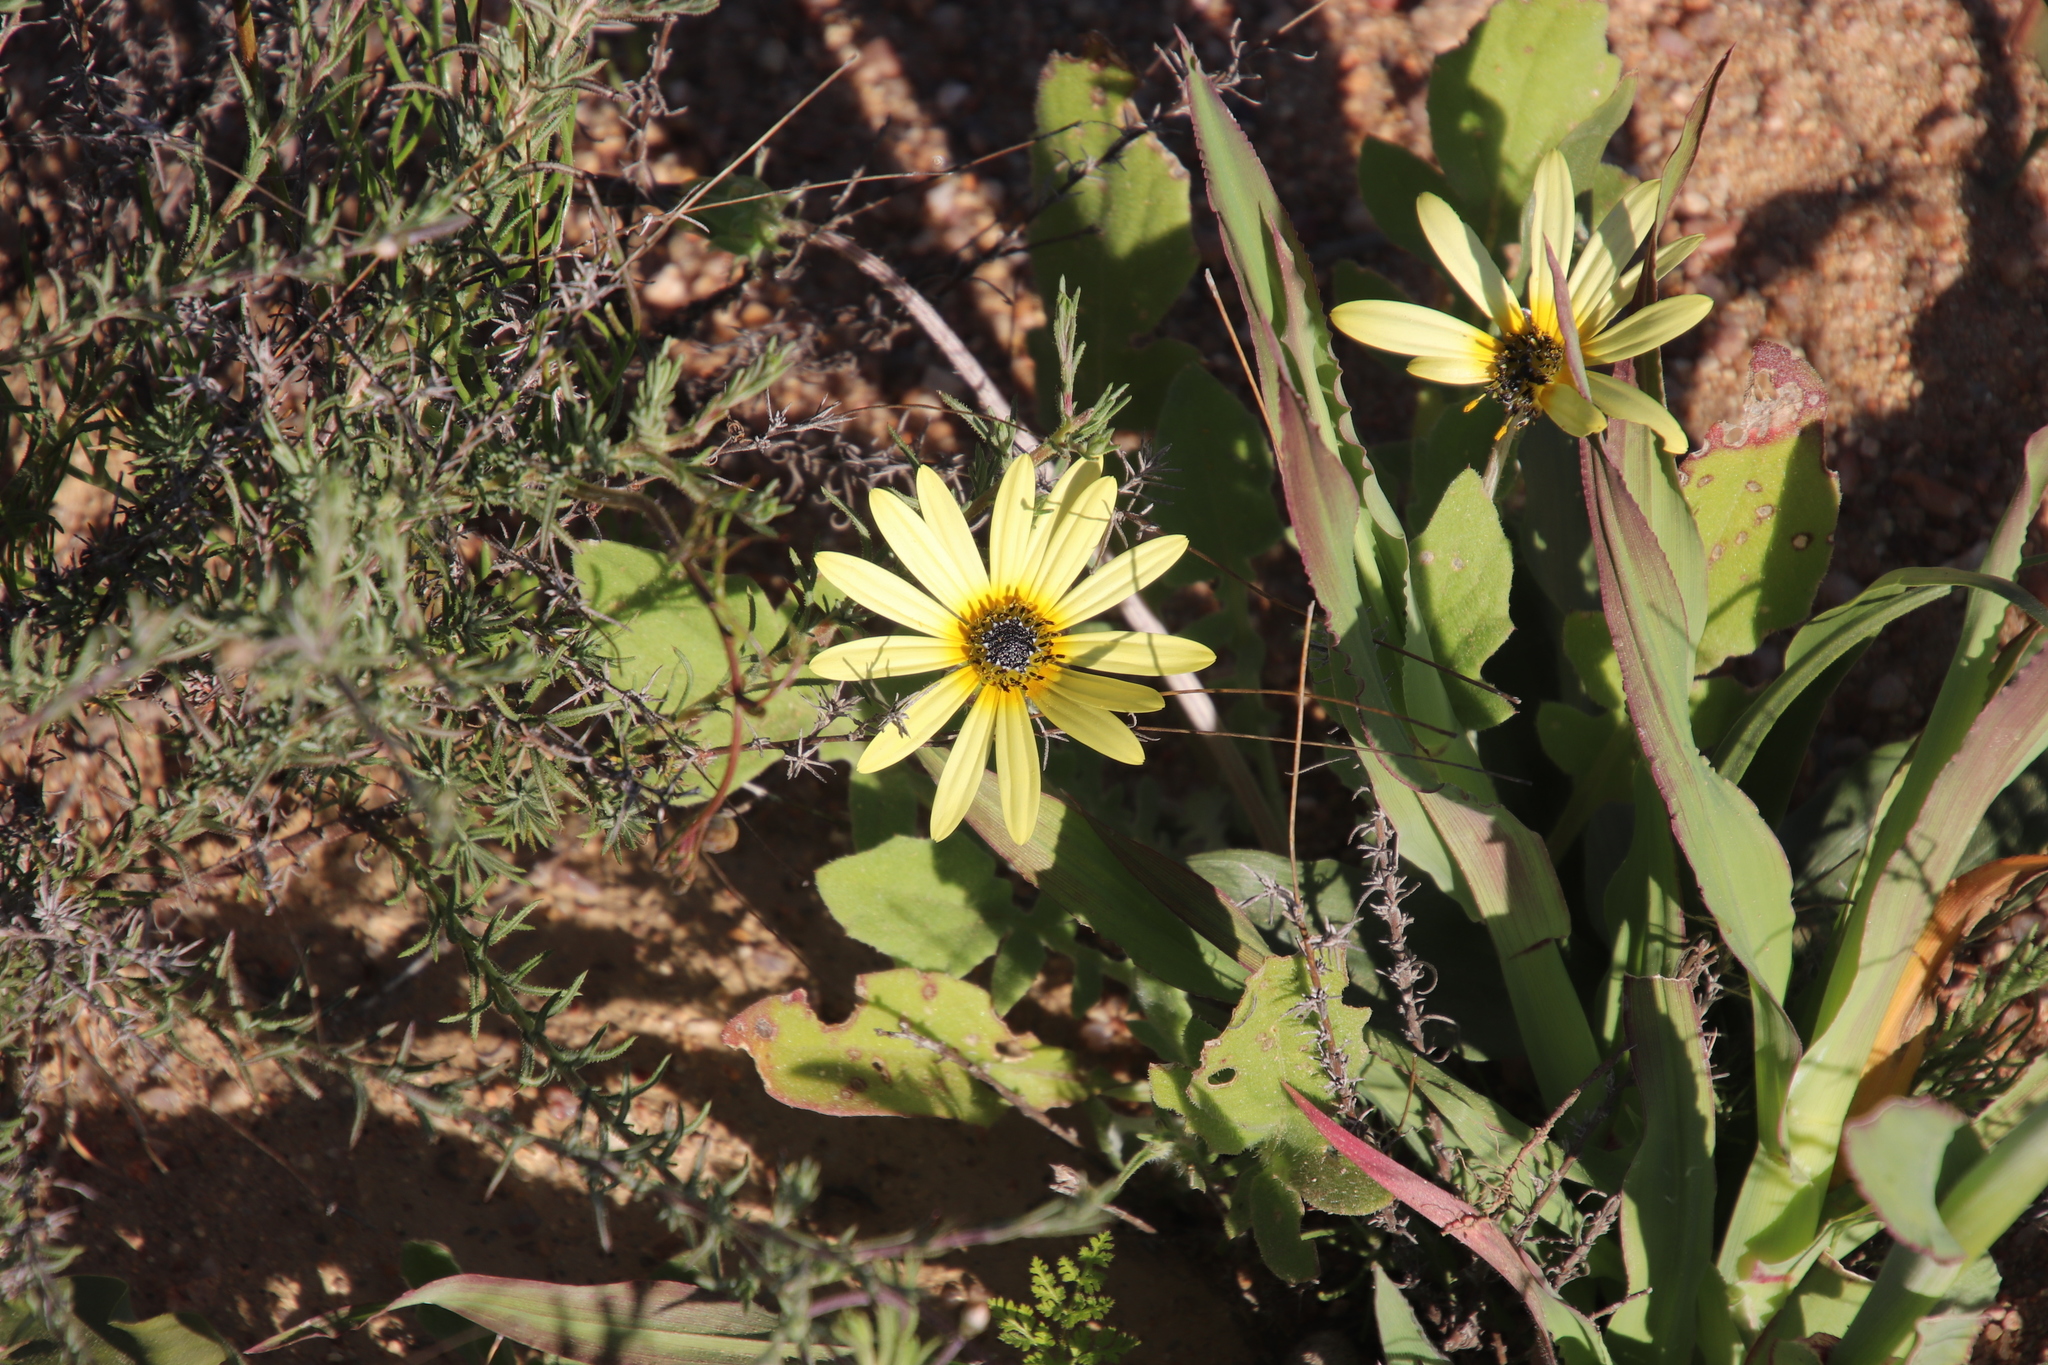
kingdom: Plantae
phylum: Tracheophyta
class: Magnoliopsida
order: Asterales
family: Asteraceae
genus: Arctotheca
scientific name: Arctotheca calendula
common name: Capeweed
